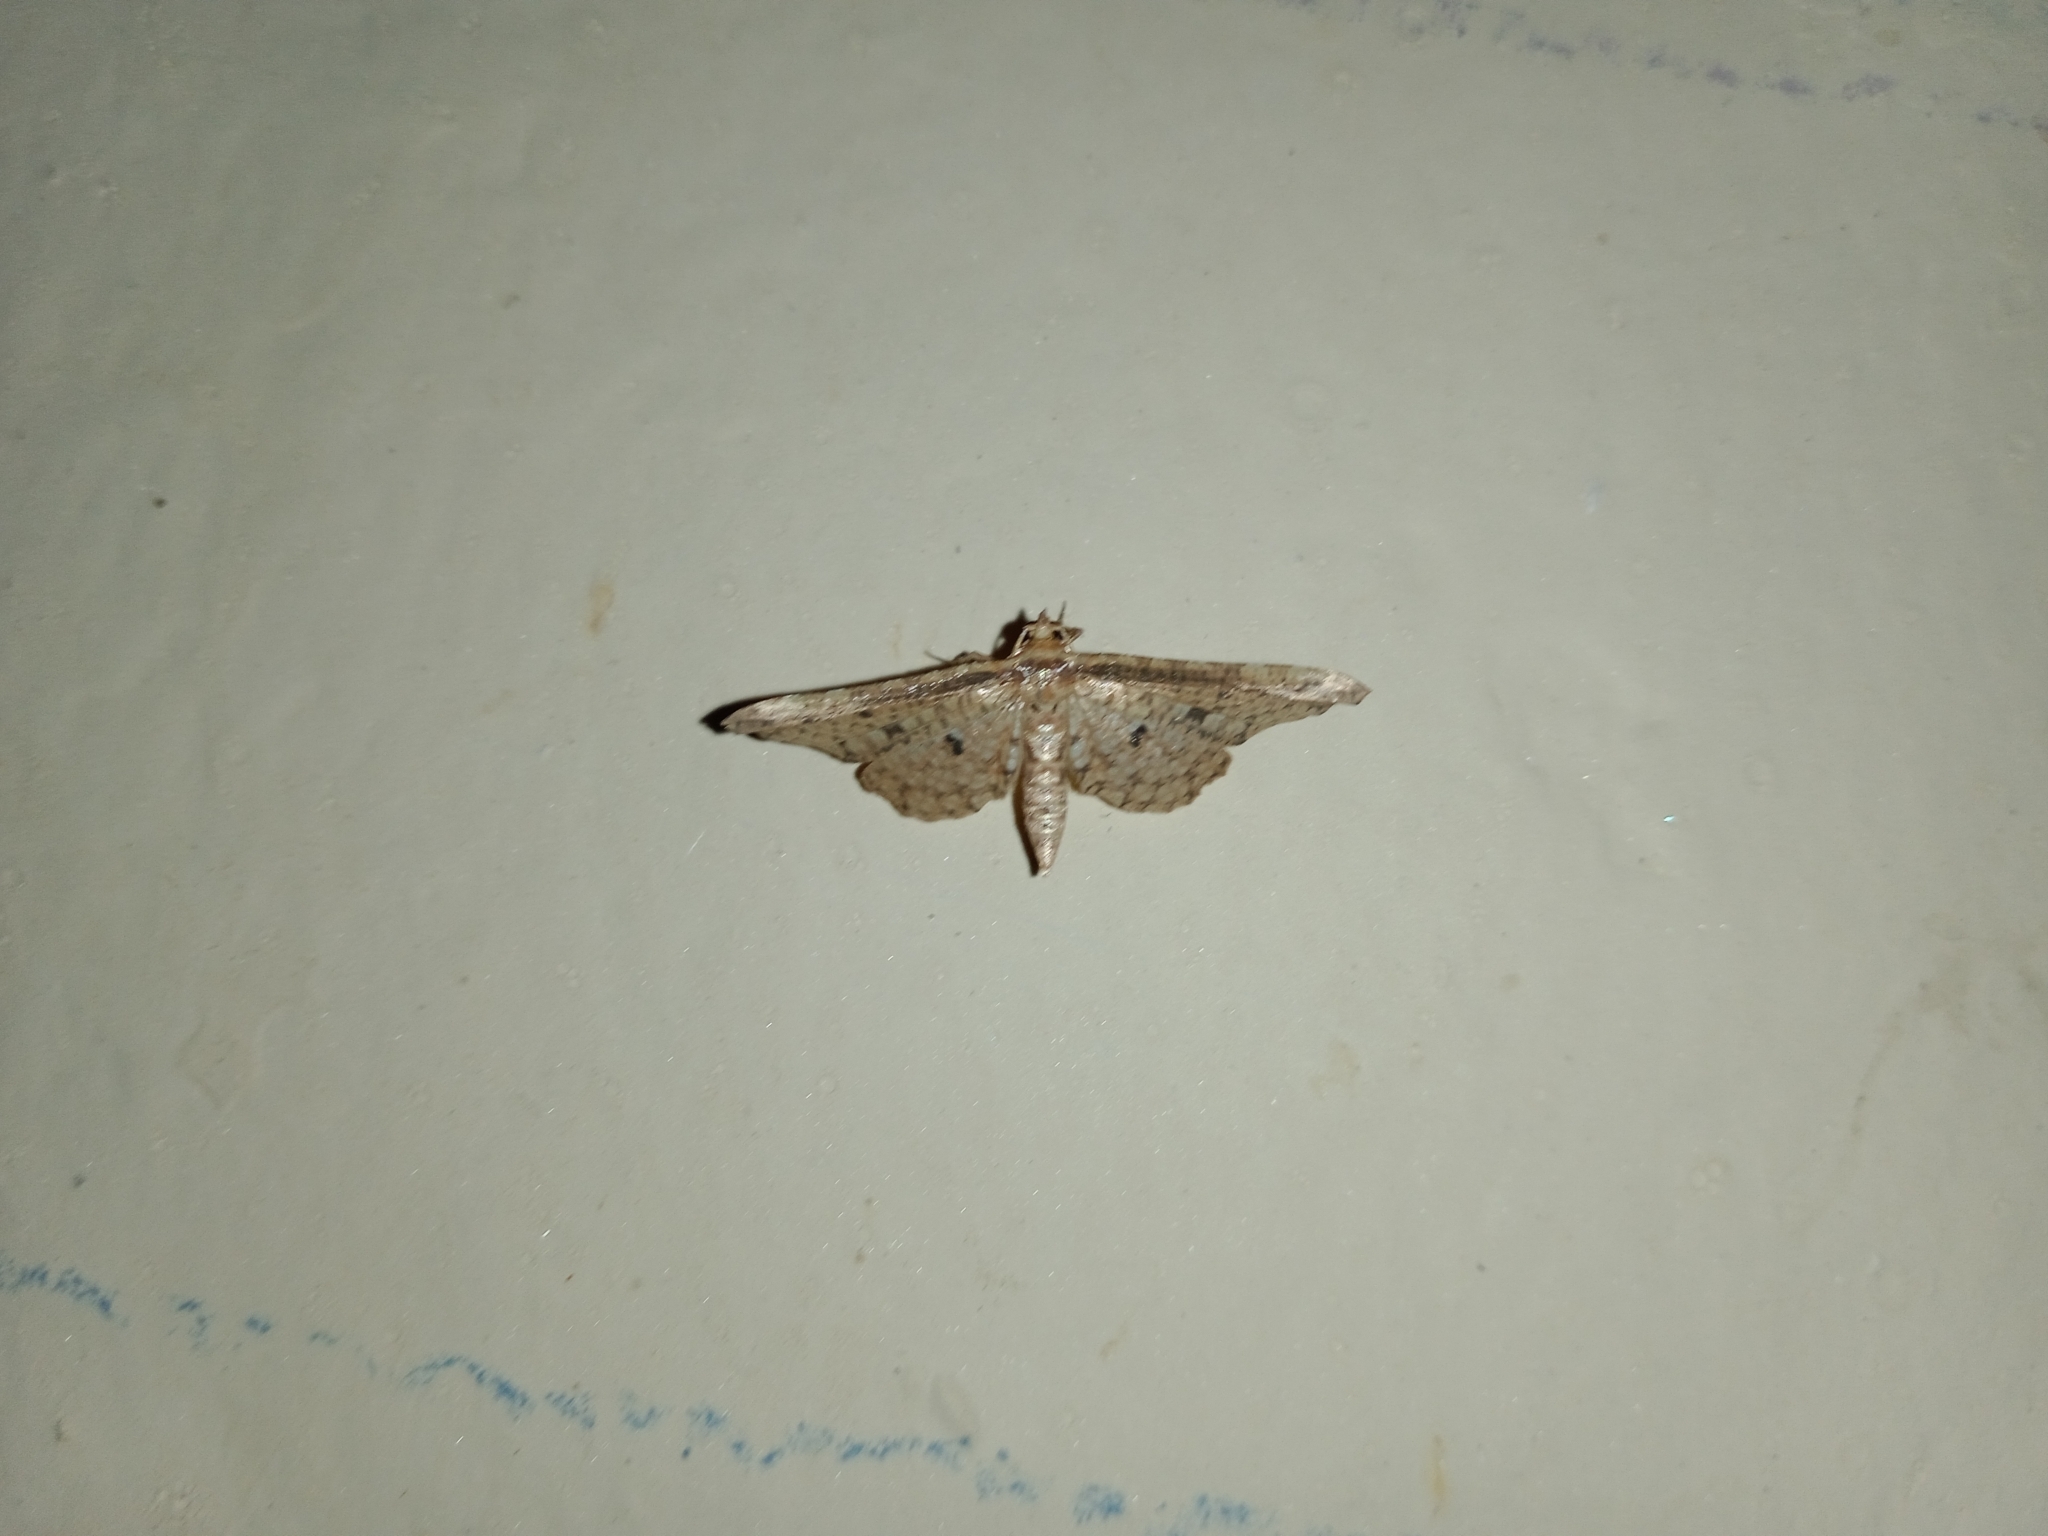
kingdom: Animalia
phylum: Arthropoda
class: Insecta
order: Lepidoptera
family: Thyrididae
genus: Pharambara
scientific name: Pharambara splendida
